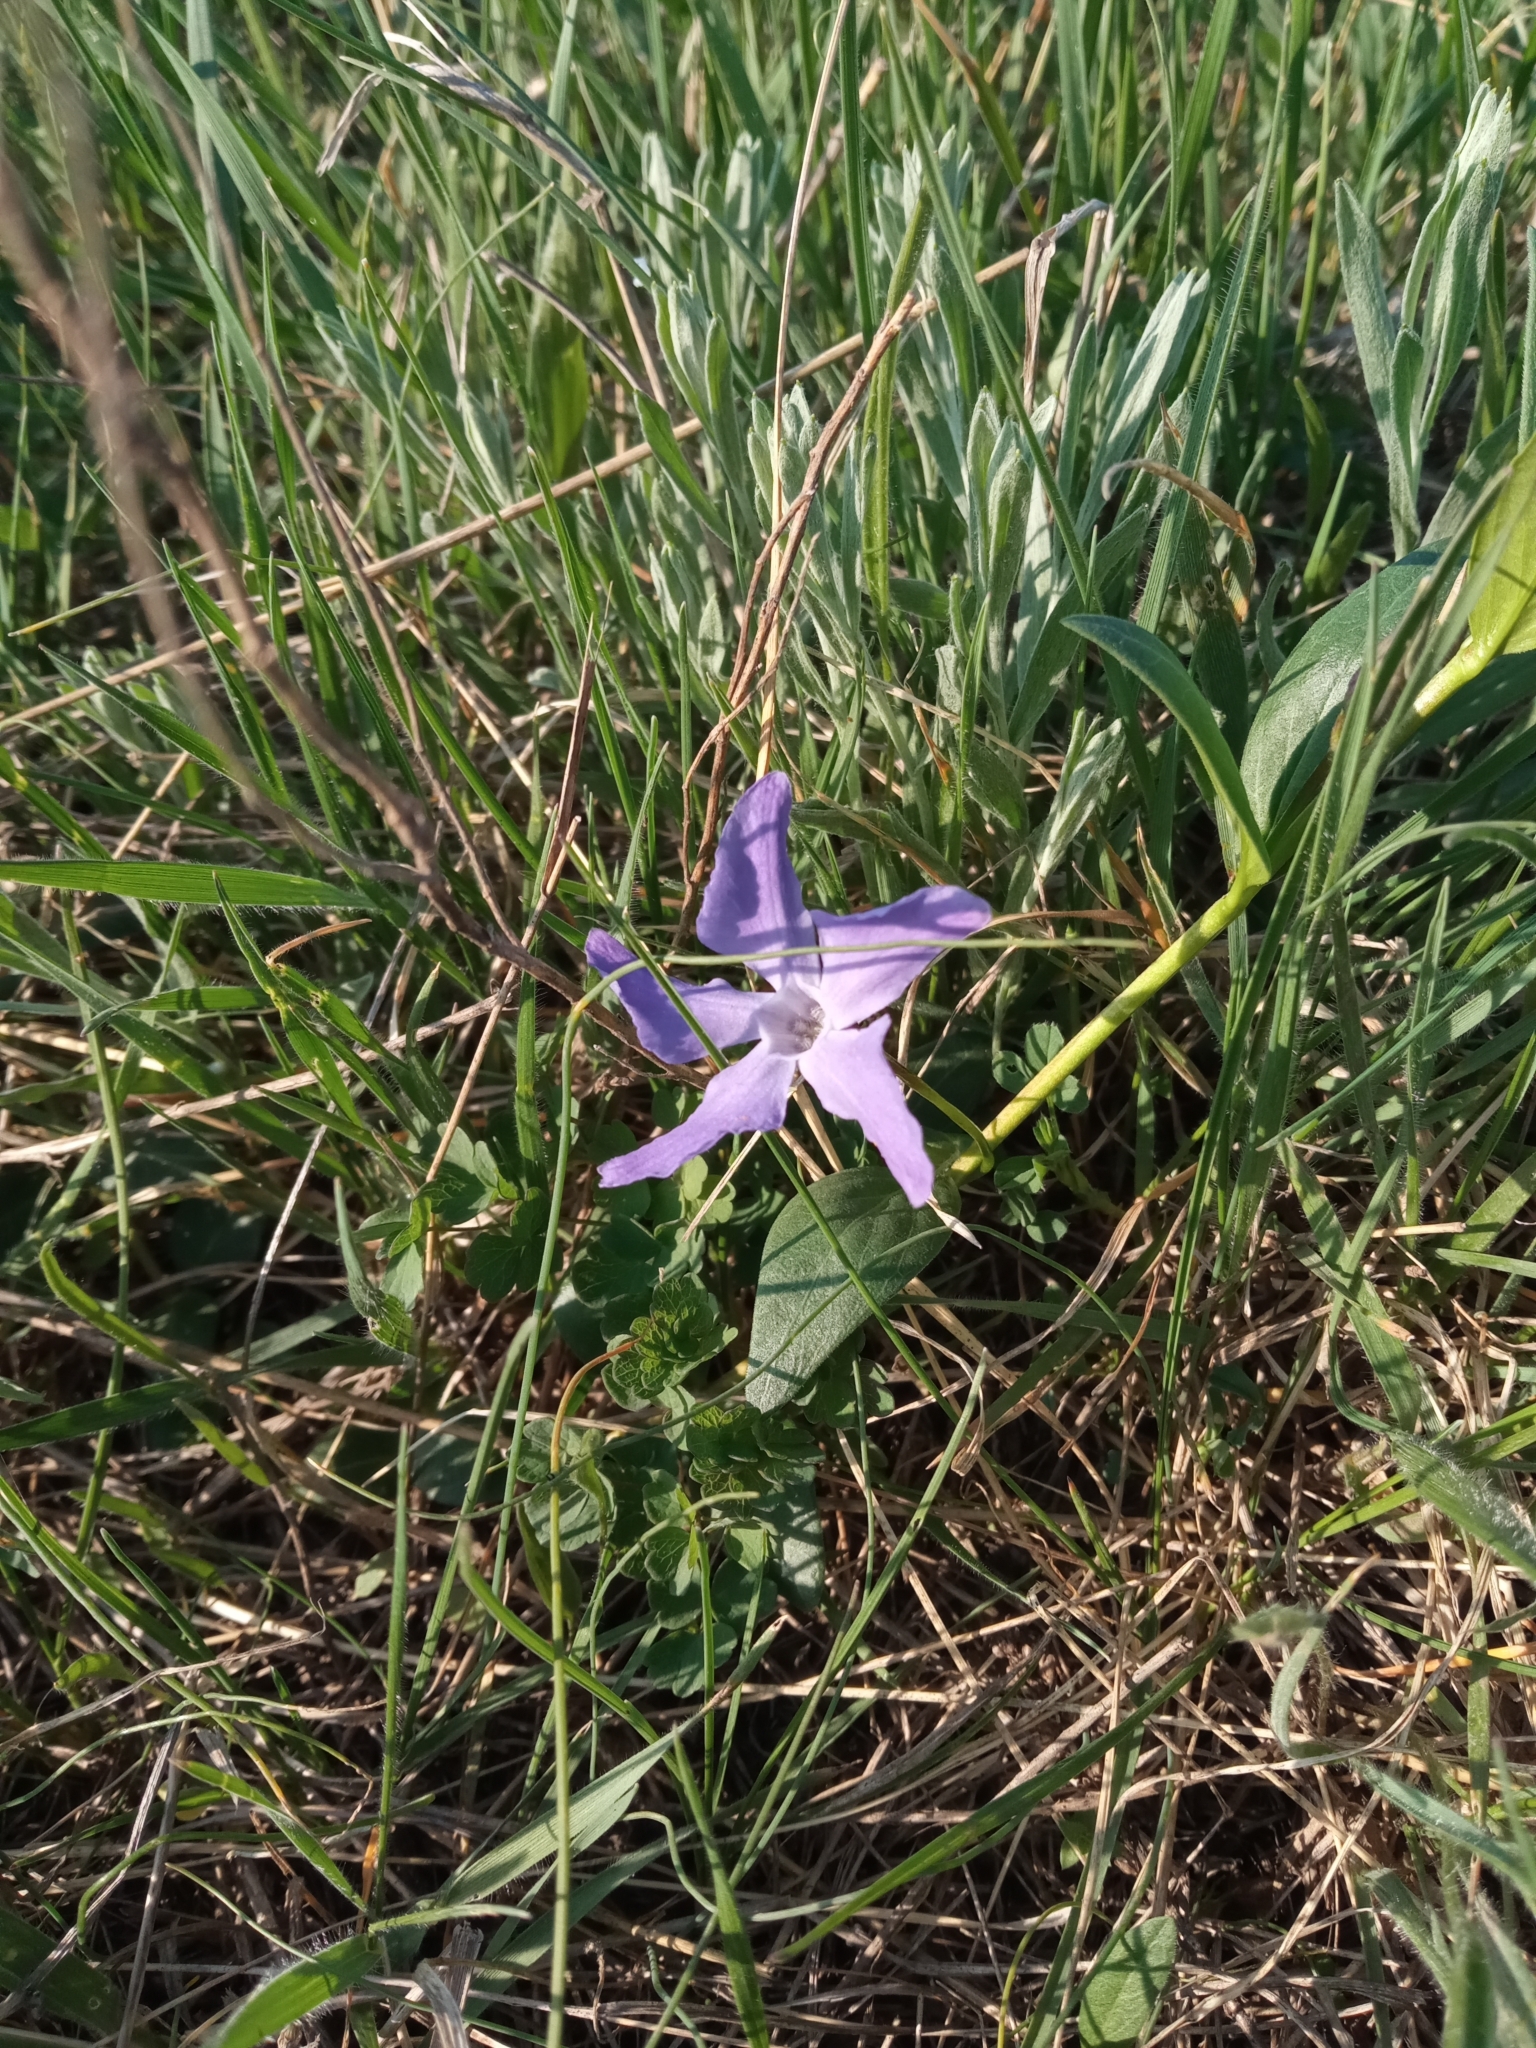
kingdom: Plantae
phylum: Tracheophyta
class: Magnoliopsida
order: Gentianales
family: Apocynaceae
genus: Vinca
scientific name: Vinca herbacea
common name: Herbaceous periwinkle
